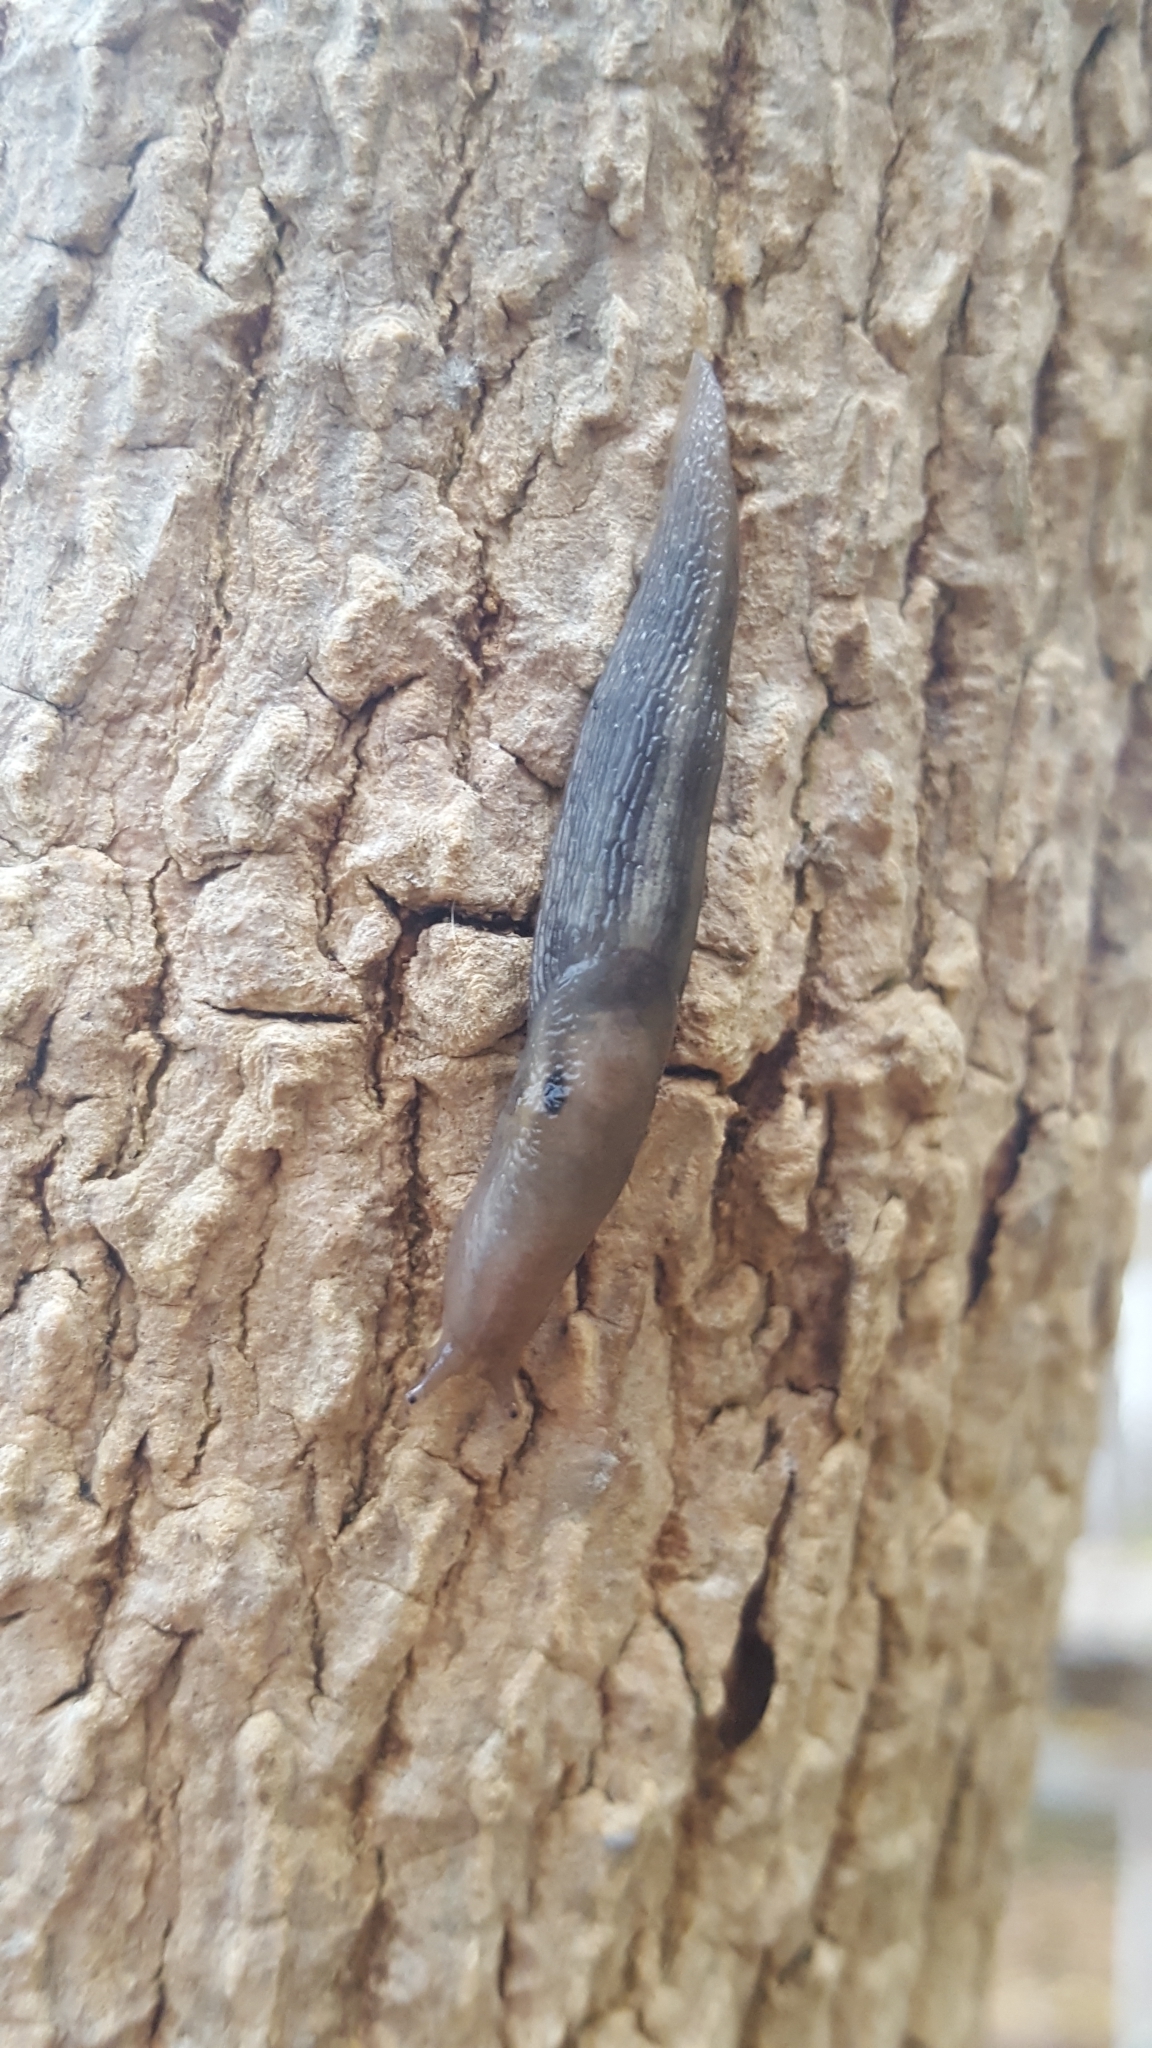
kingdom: Animalia
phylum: Mollusca
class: Gastropoda
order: Stylommatophora
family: Limacidae
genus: Lehmannia
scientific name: Lehmannia marginata
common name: Tree slug
